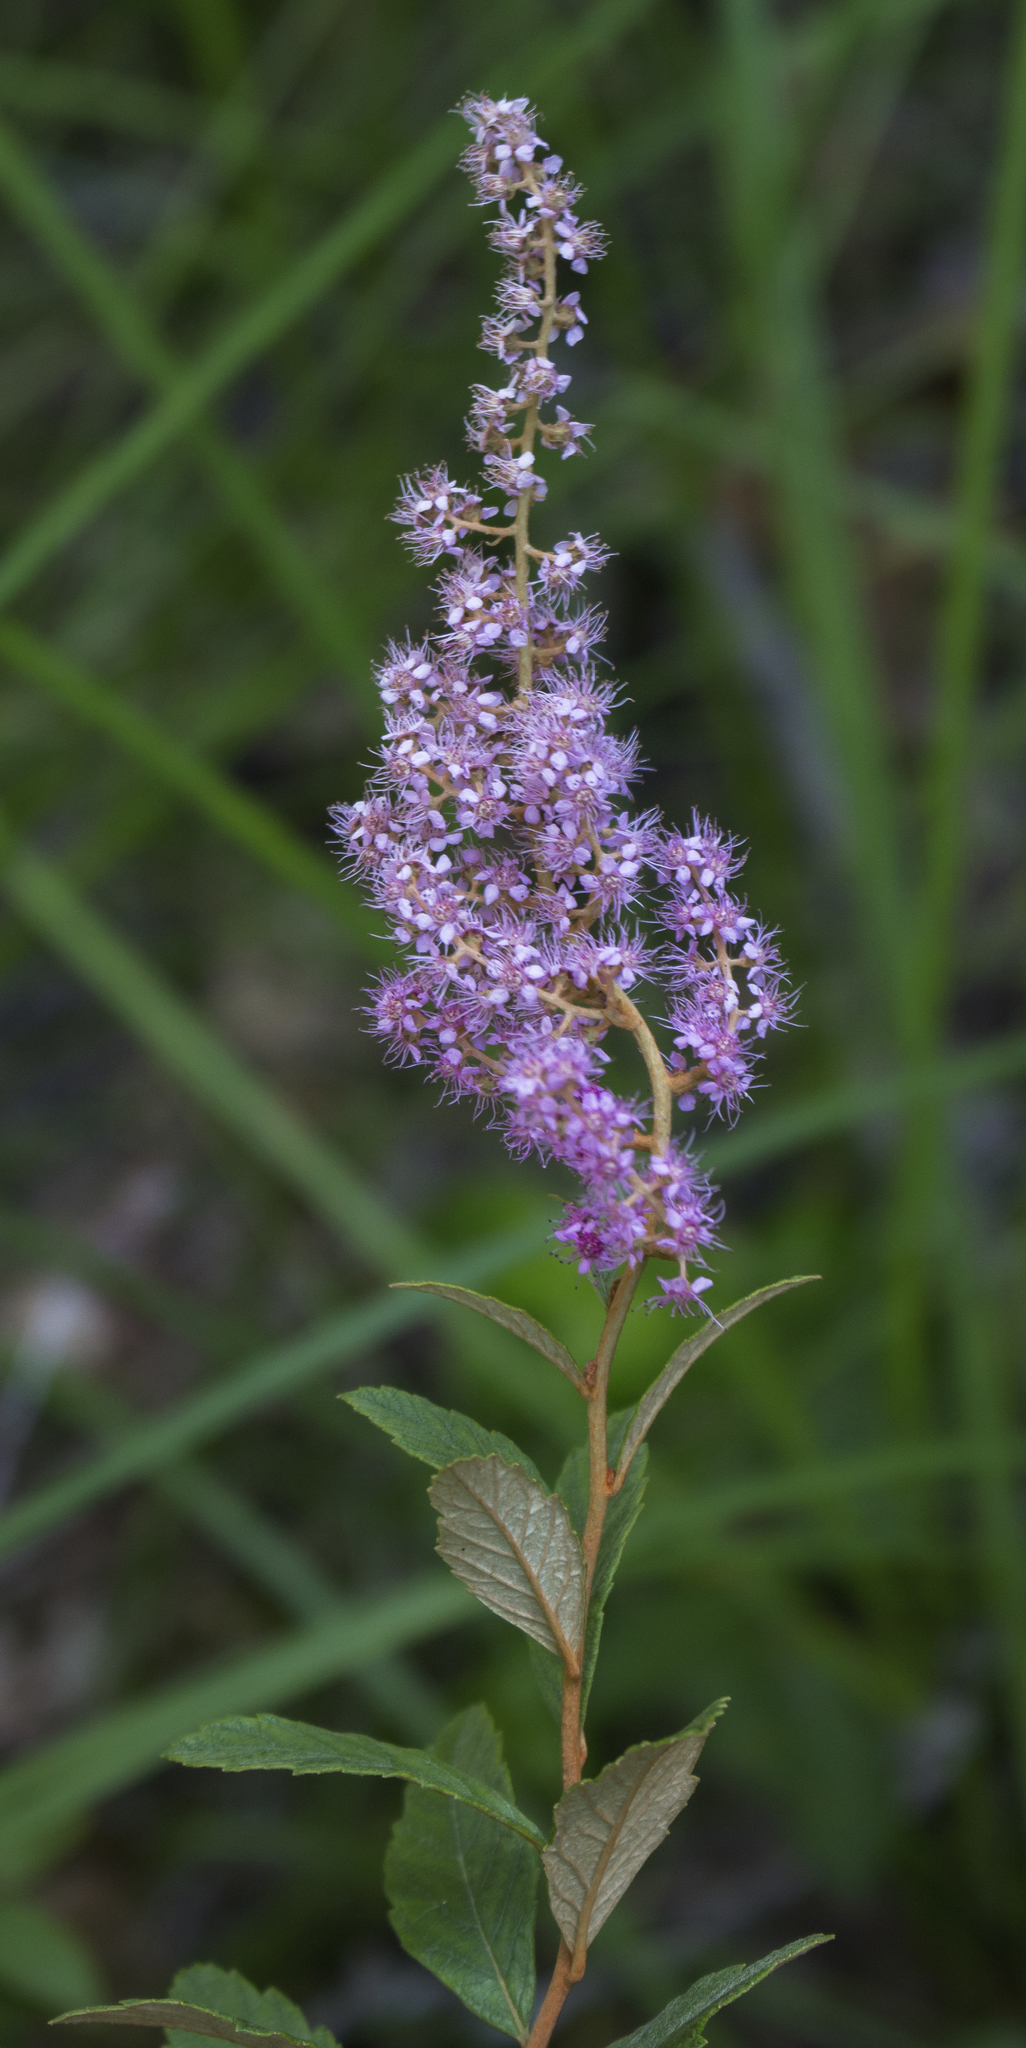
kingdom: Plantae
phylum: Tracheophyta
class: Magnoliopsida
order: Rosales
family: Rosaceae
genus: Spiraea
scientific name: Spiraea tomentosa
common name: Hardhack
